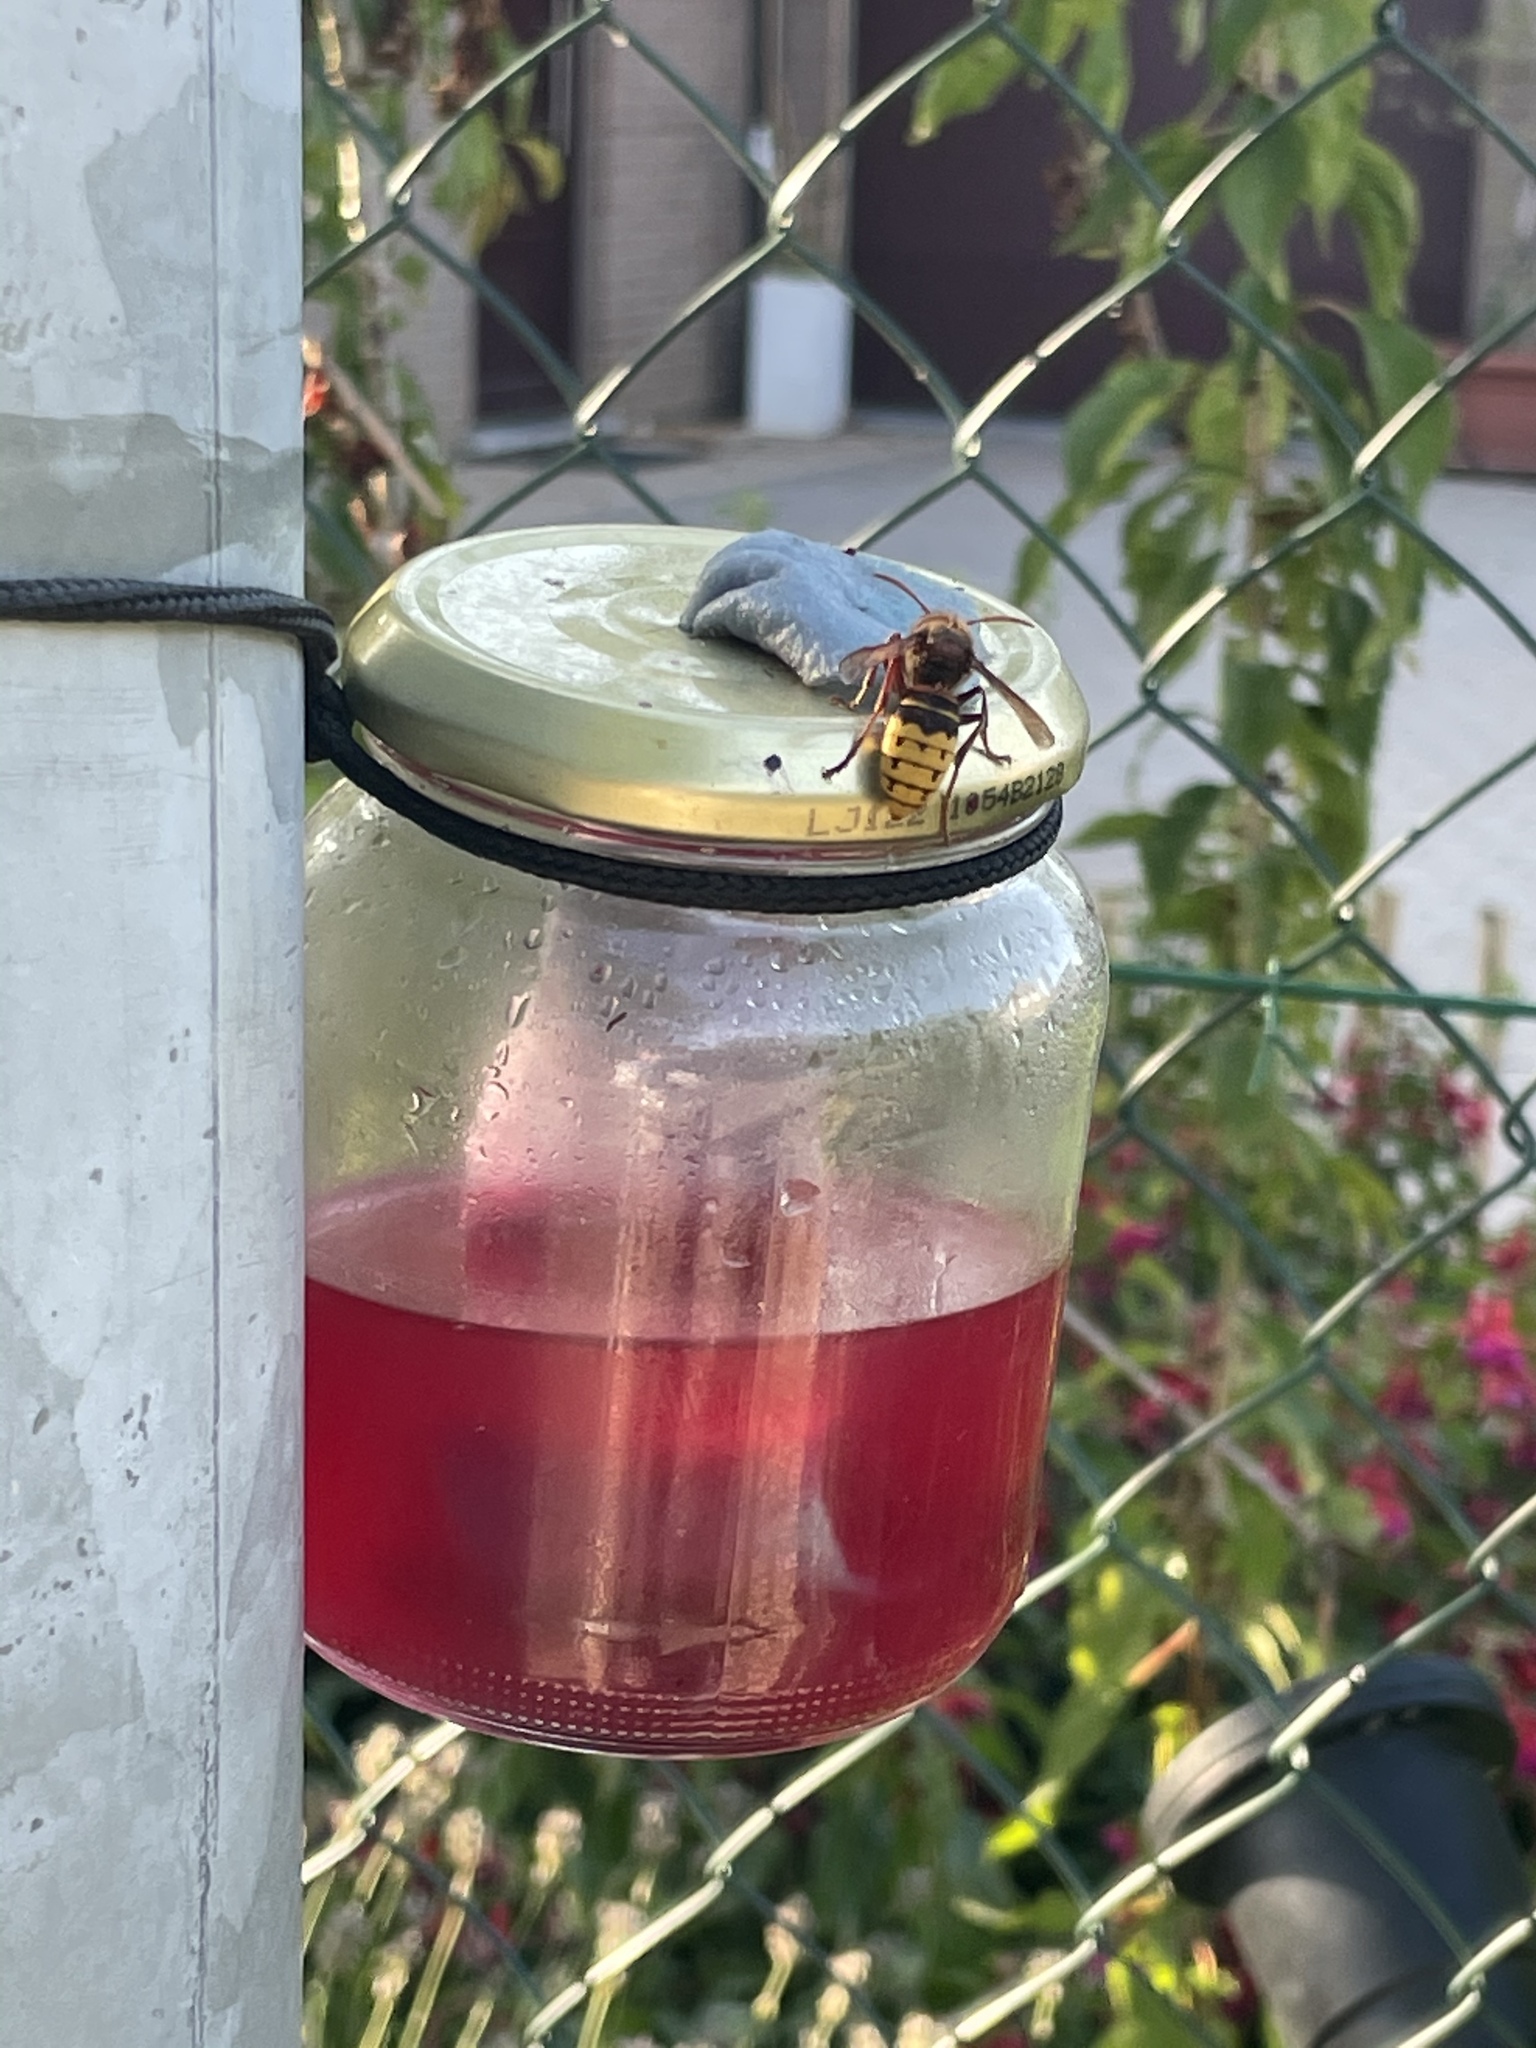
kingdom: Animalia
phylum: Arthropoda
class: Insecta
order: Hymenoptera
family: Vespidae
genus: Vespa
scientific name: Vespa crabro
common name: Hornet
